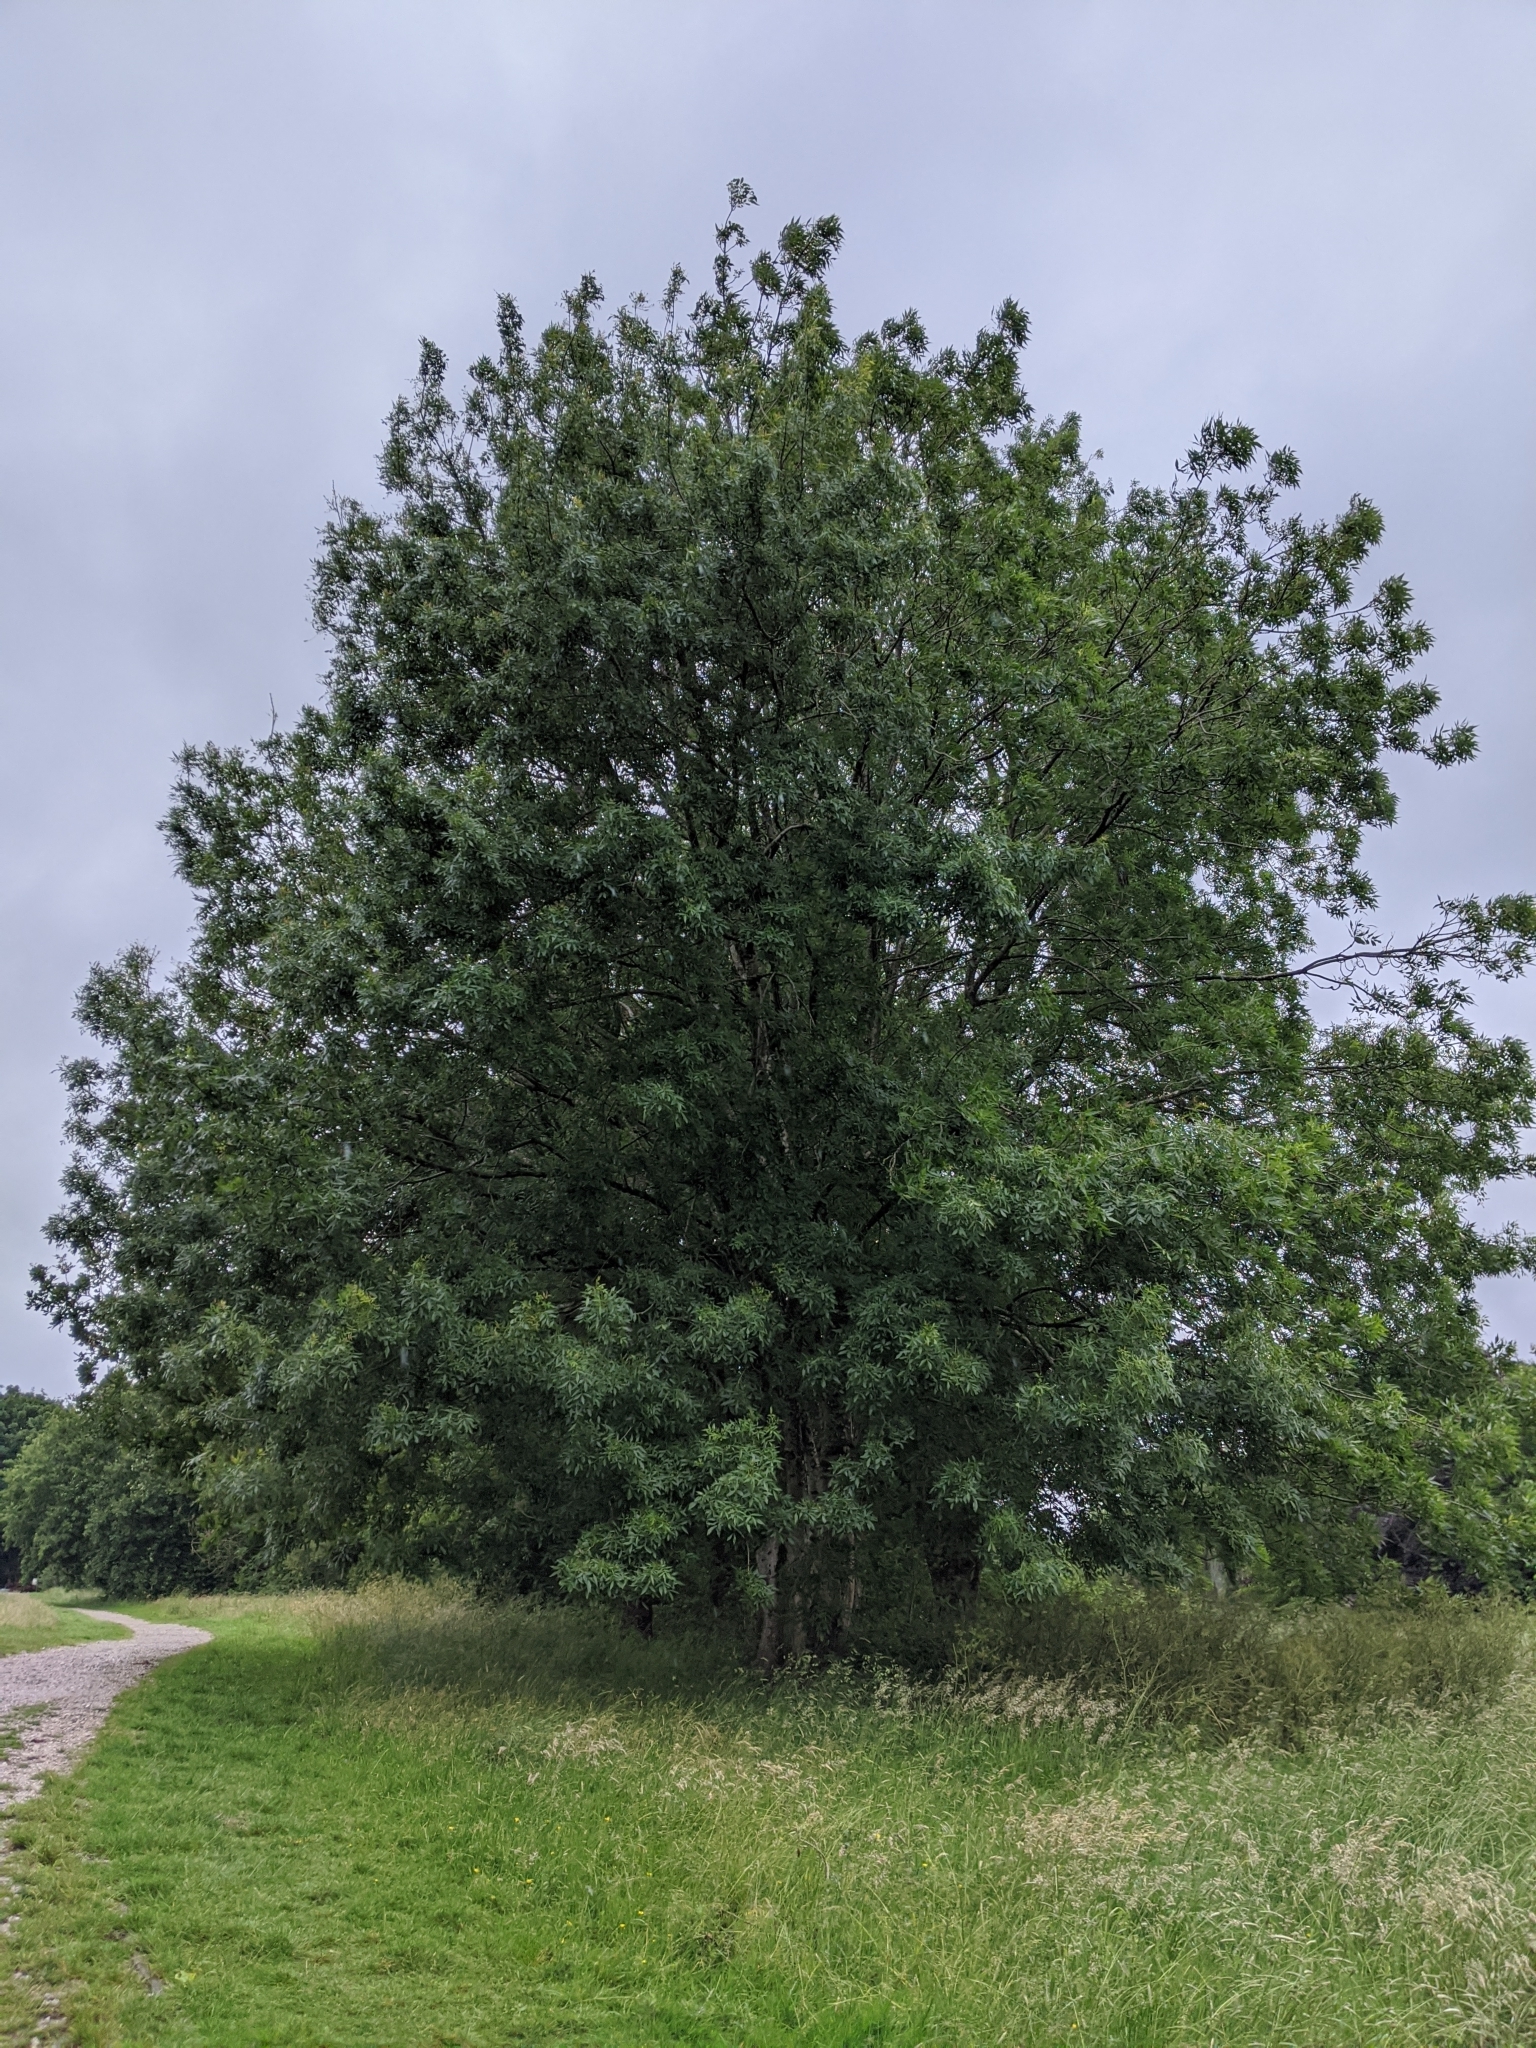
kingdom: Plantae
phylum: Tracheophyta
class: Magnoliopsida
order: Lamiales
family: Oleaceae
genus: Fraxinus
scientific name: Fraxinus excelsior
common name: European ash
